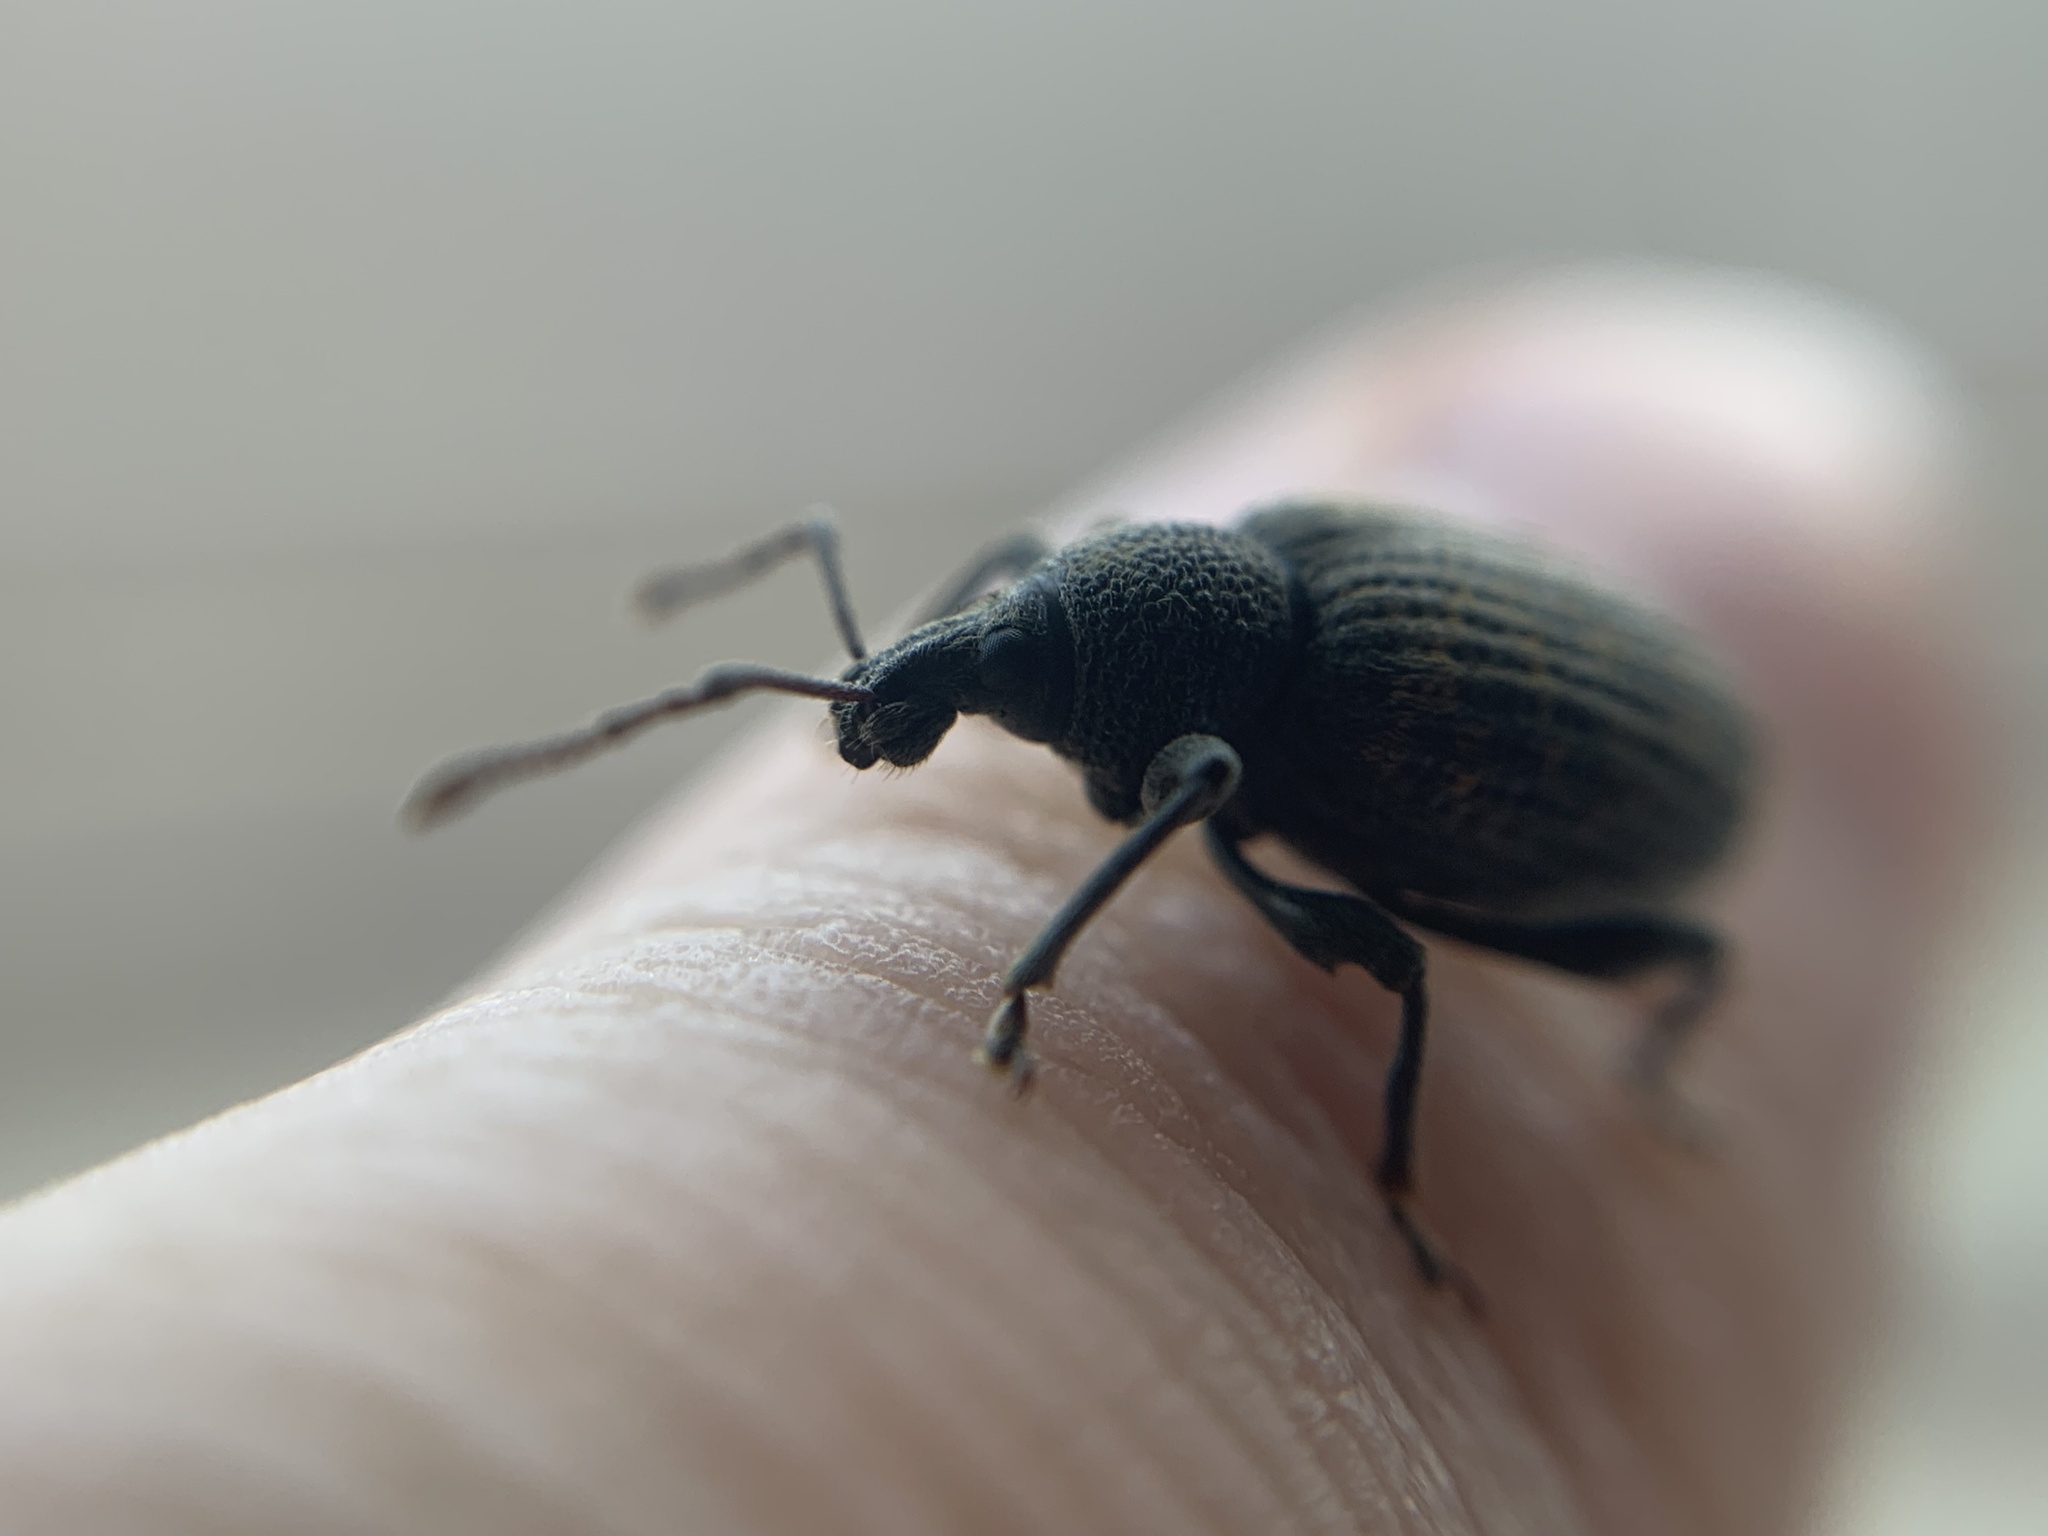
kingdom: Animalia
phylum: Arthropoda
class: Insecta
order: Coleoptera
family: Curculionidae
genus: Otiorhynchus
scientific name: Otiorhynchus sulcatus
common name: Black vine weevil
